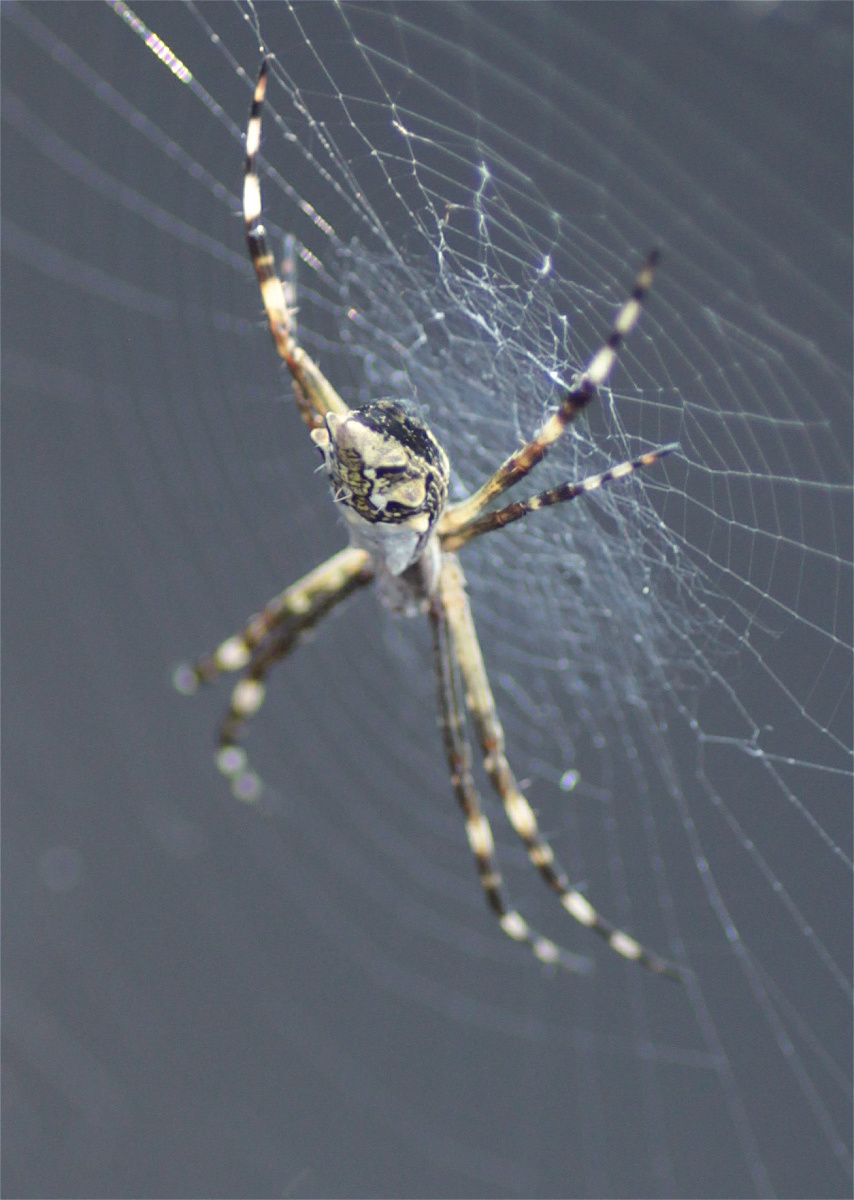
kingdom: Animalia
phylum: Arthropoda
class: Arachnida
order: Araneae
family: Araneidae
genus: Argiope
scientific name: Argiope argentata
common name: Orb weavers
